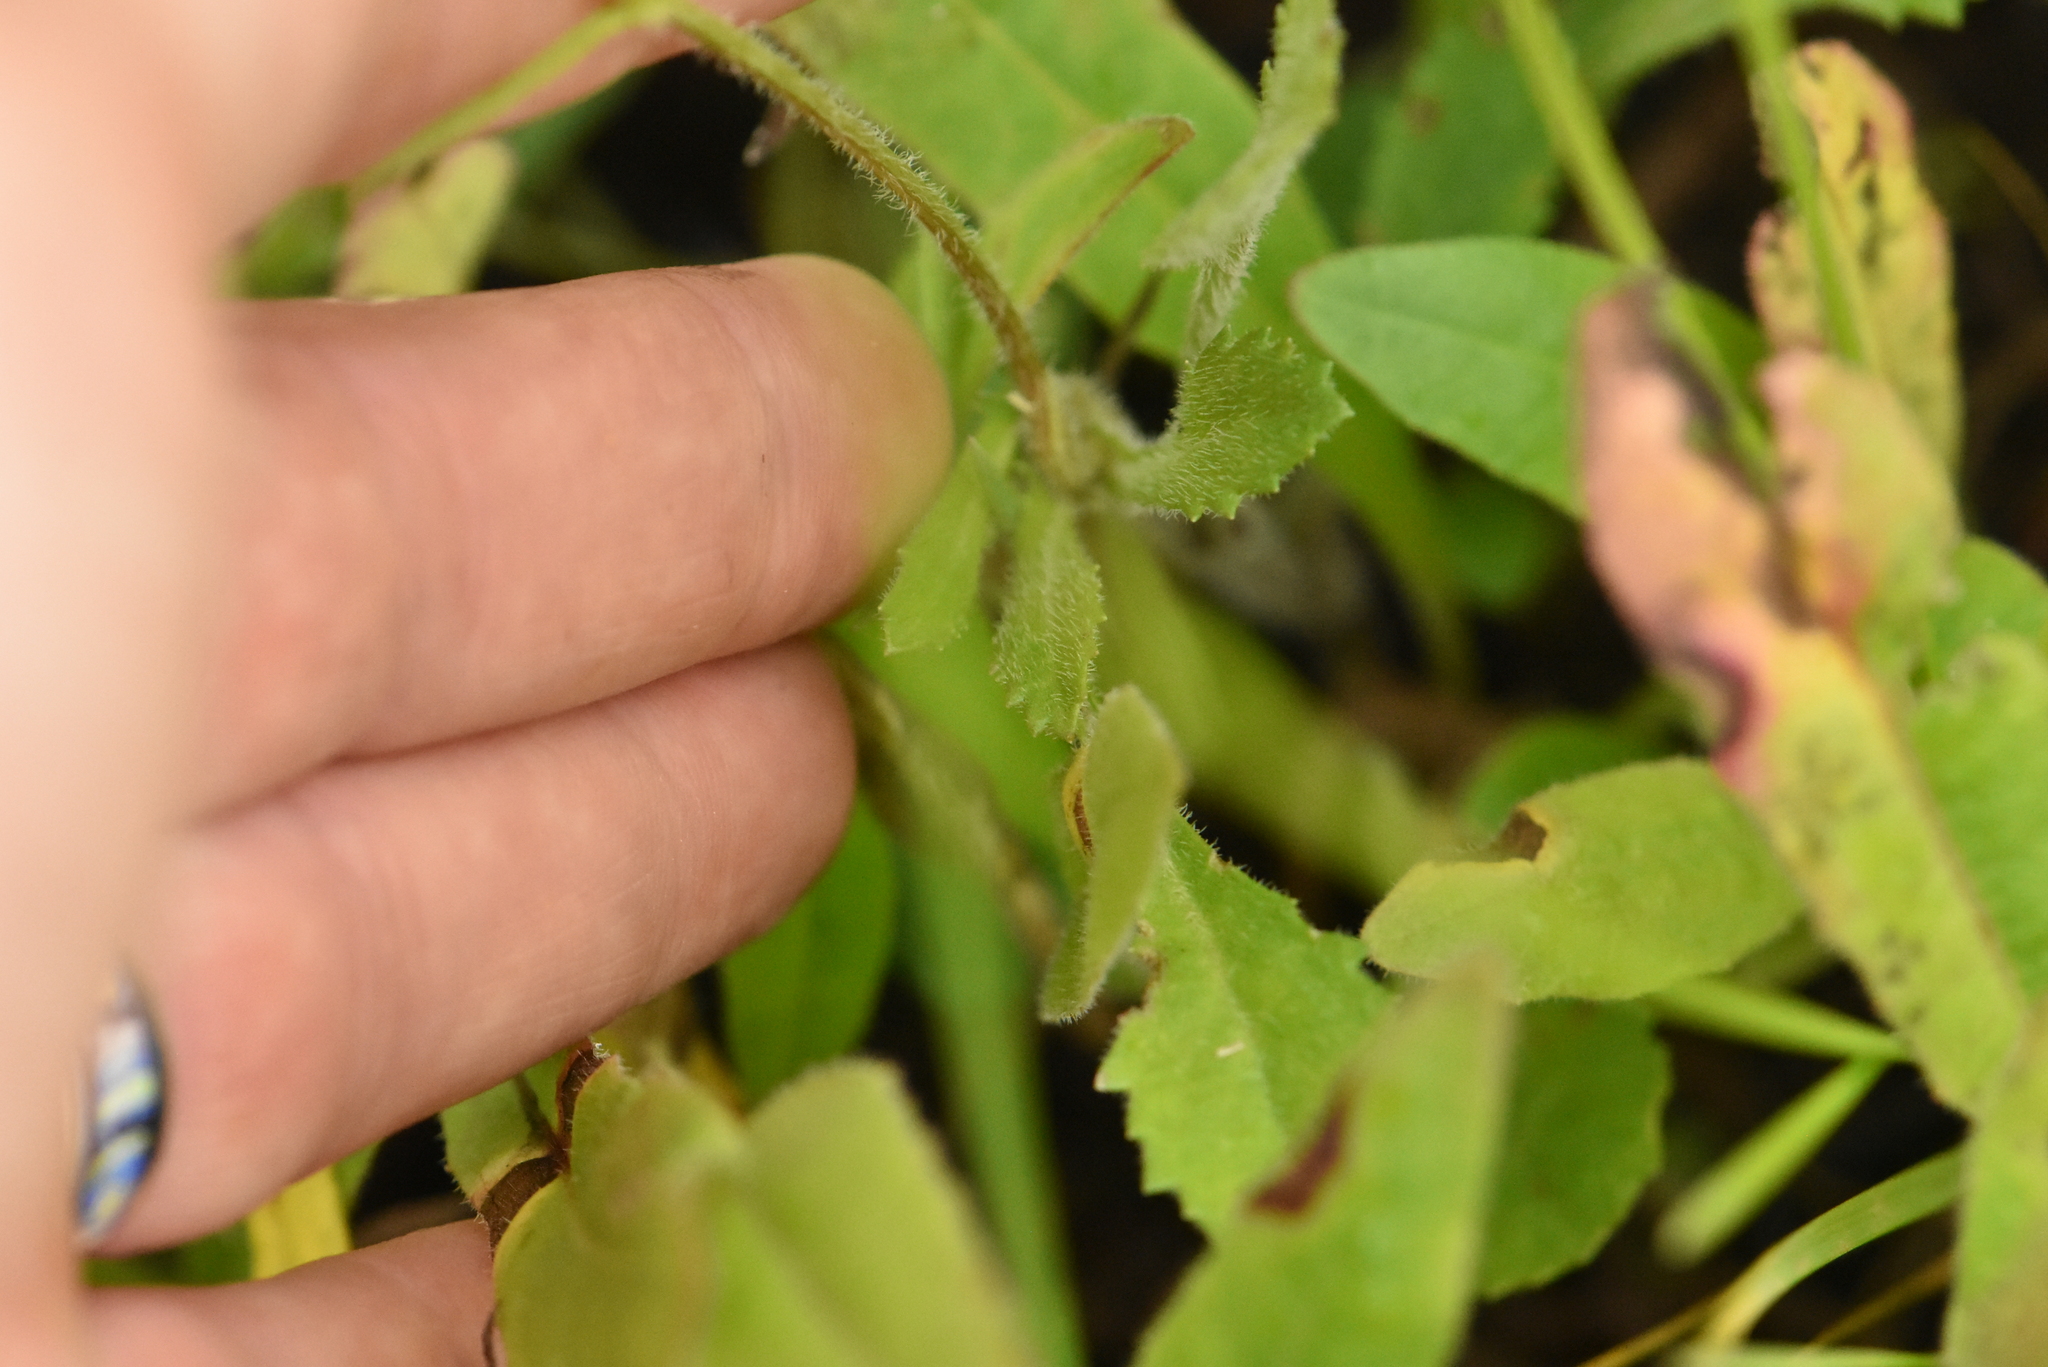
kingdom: Plantae
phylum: Tracheophyta
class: Magnoliopsida
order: Asterales
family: Asteraceae
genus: Leucanthemum
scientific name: Leucanthemum vulgare
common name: Oxeye daisy
